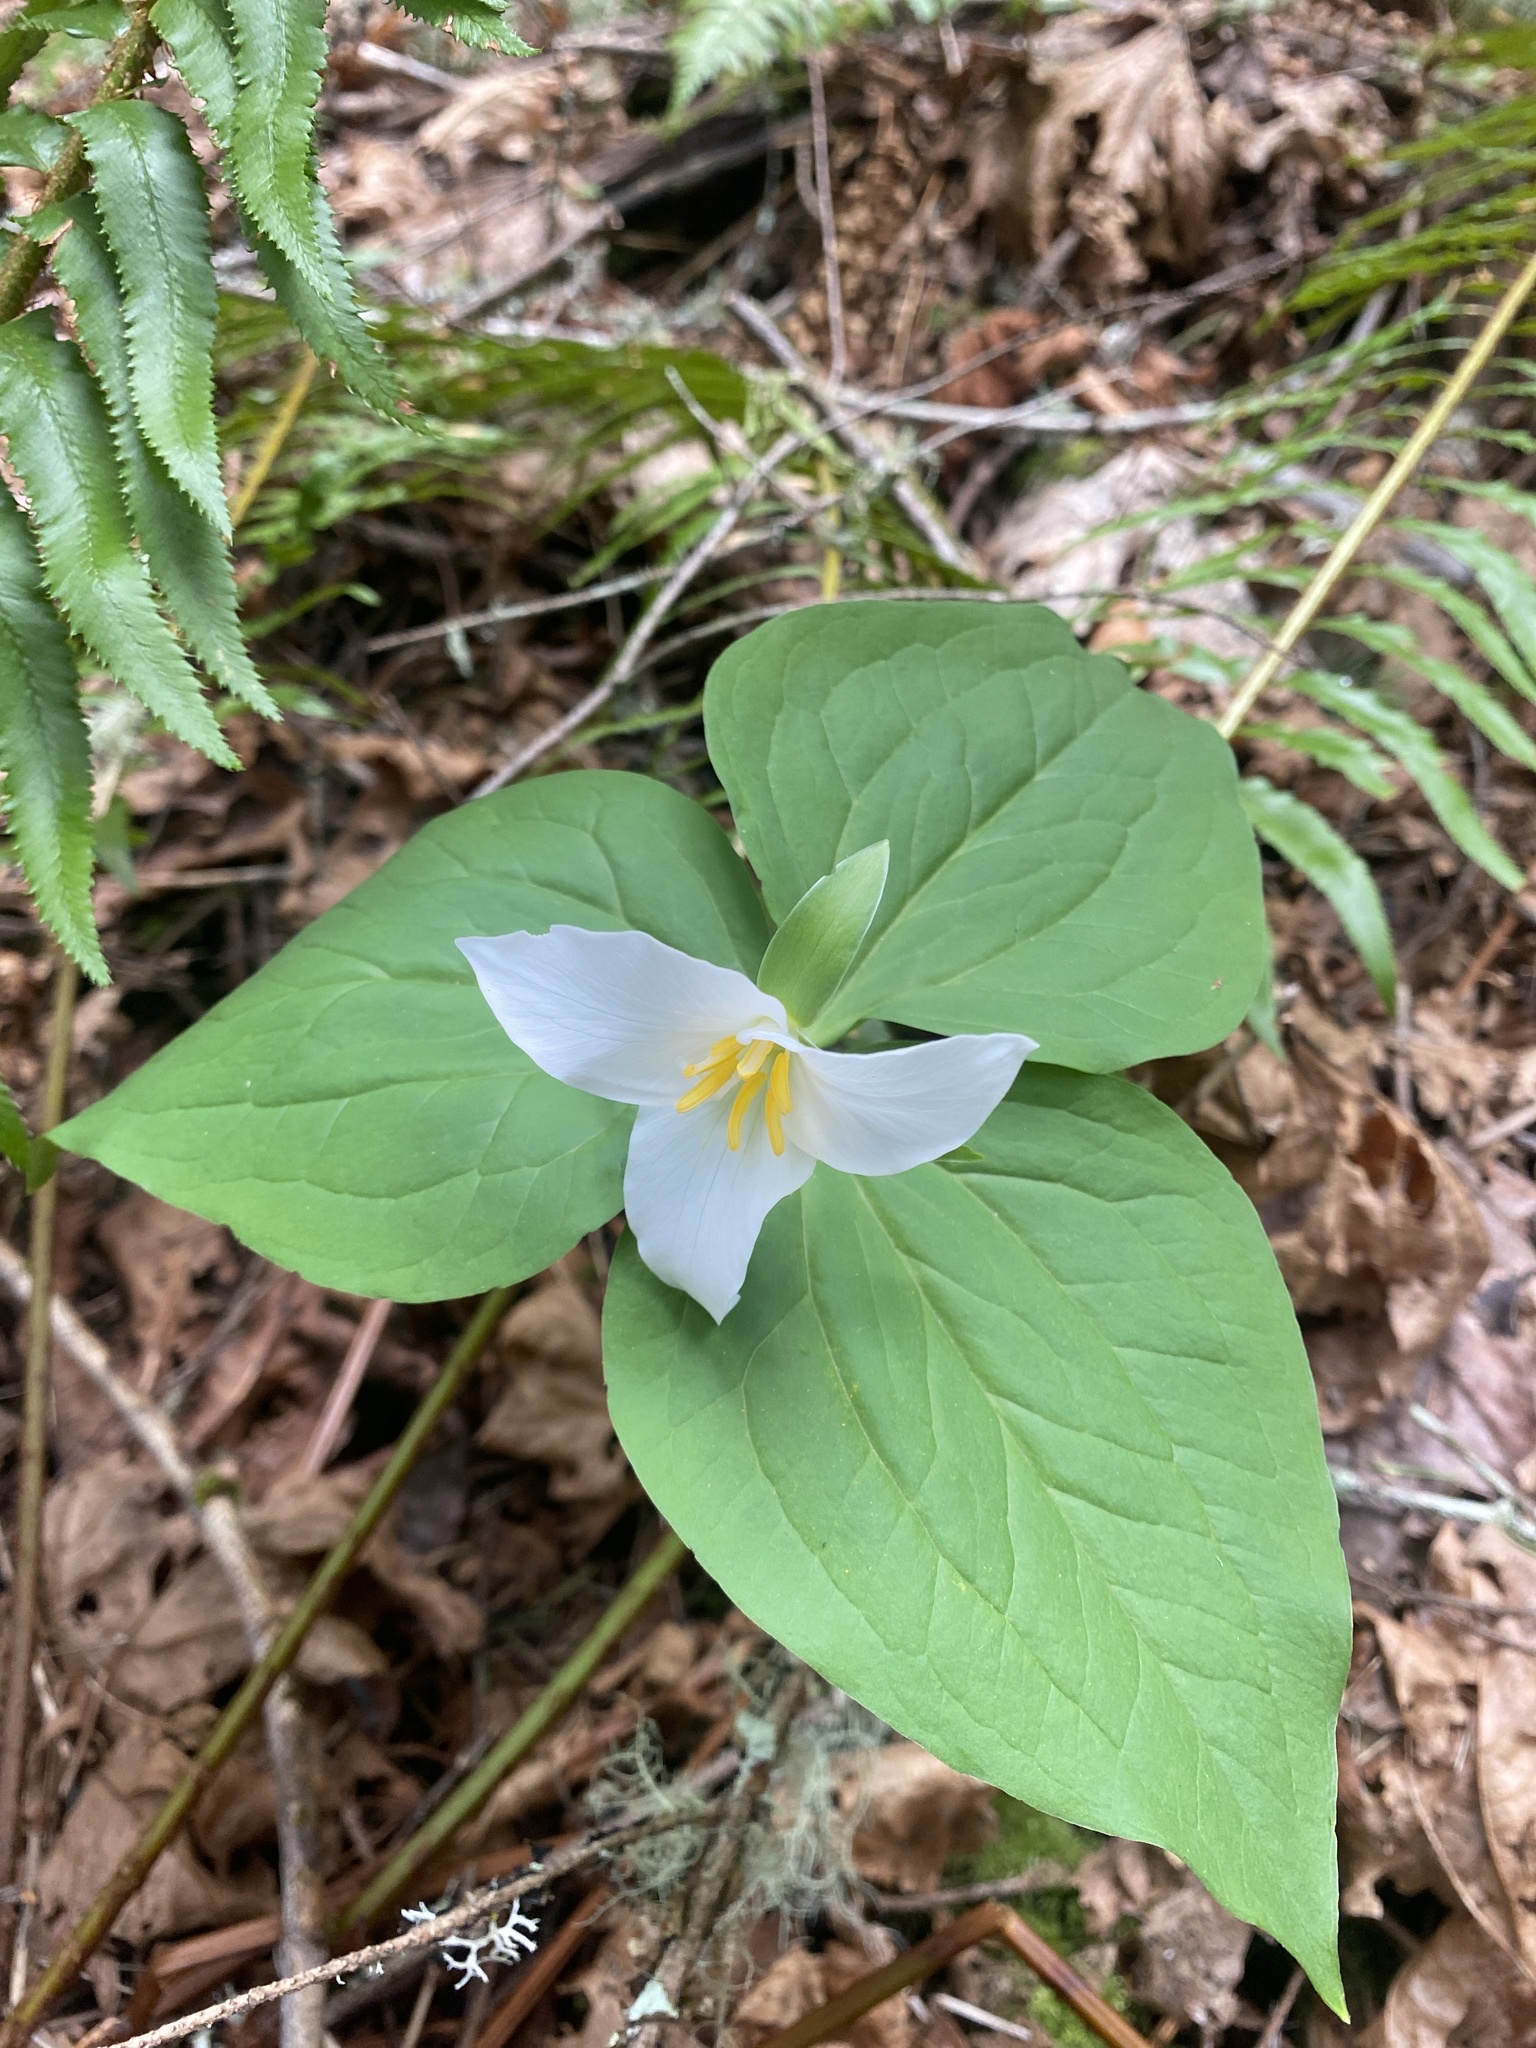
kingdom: Plantae
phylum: Tracheophyta
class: Liliopsida
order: Liliales
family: Melanthiaceae
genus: Trillium
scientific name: Trillium ovatum
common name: Pacific trillium
